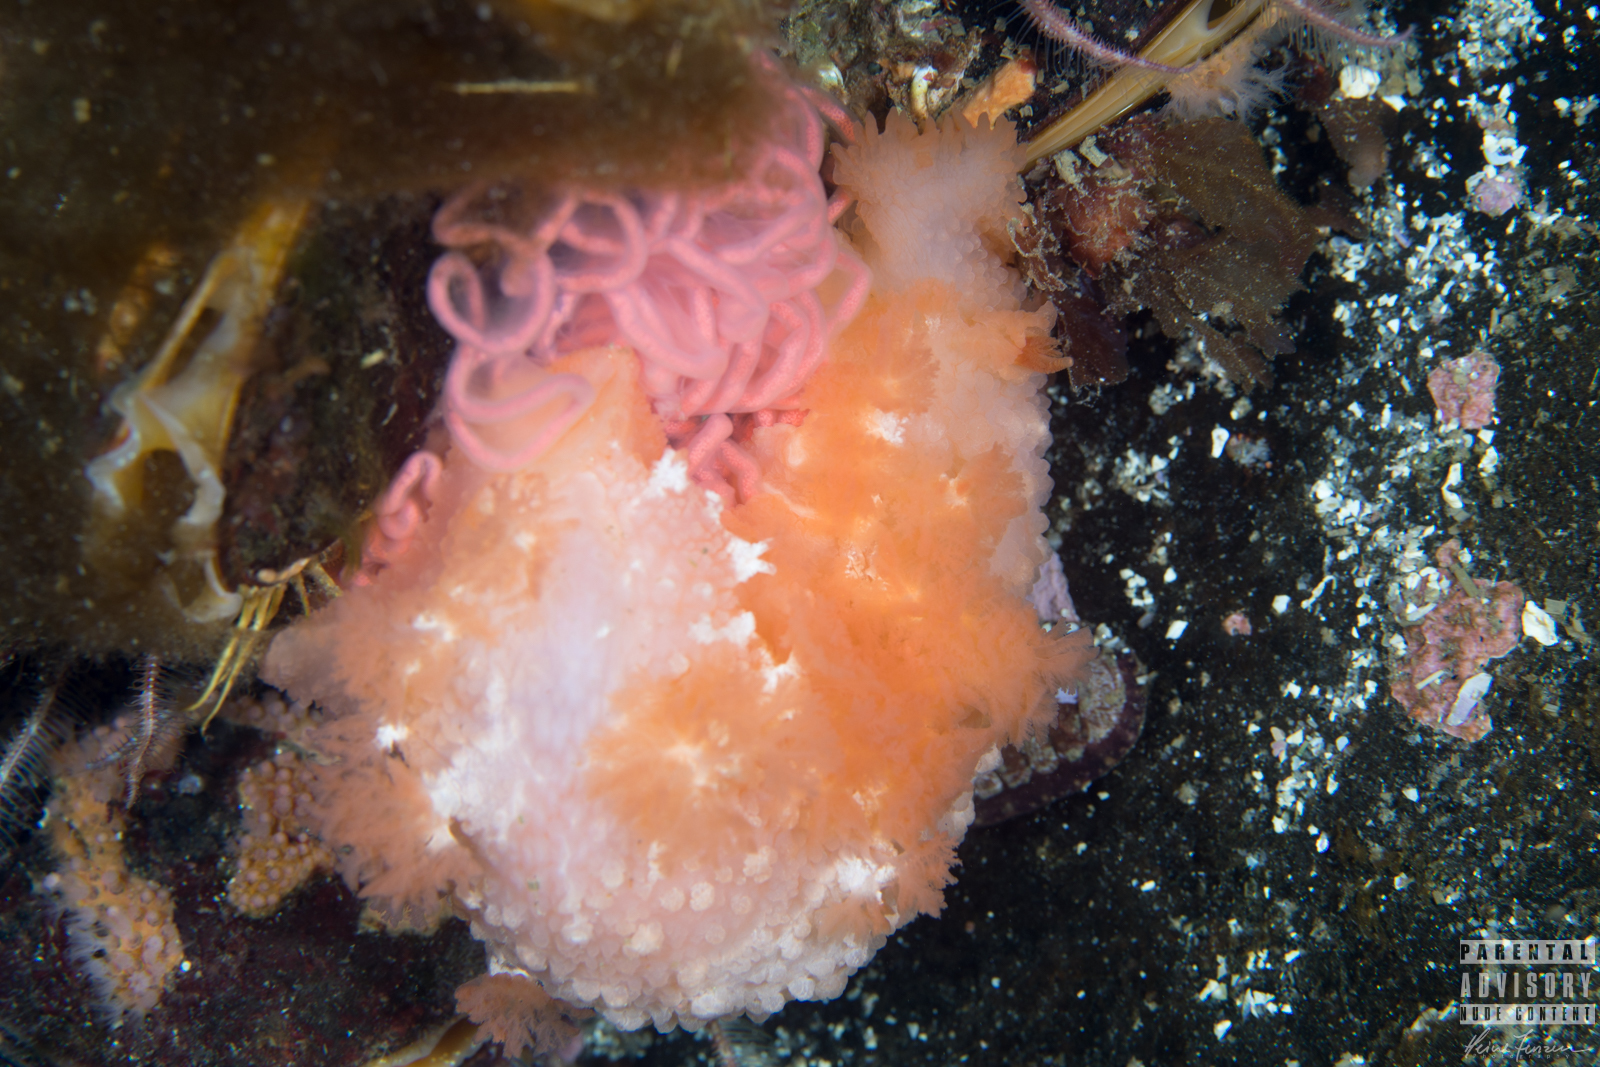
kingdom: Animalia
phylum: Mollusca
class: Gastropoda
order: Nudibranchia
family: Tritoniidae
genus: Tritonia
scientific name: Tritonia hombergii
